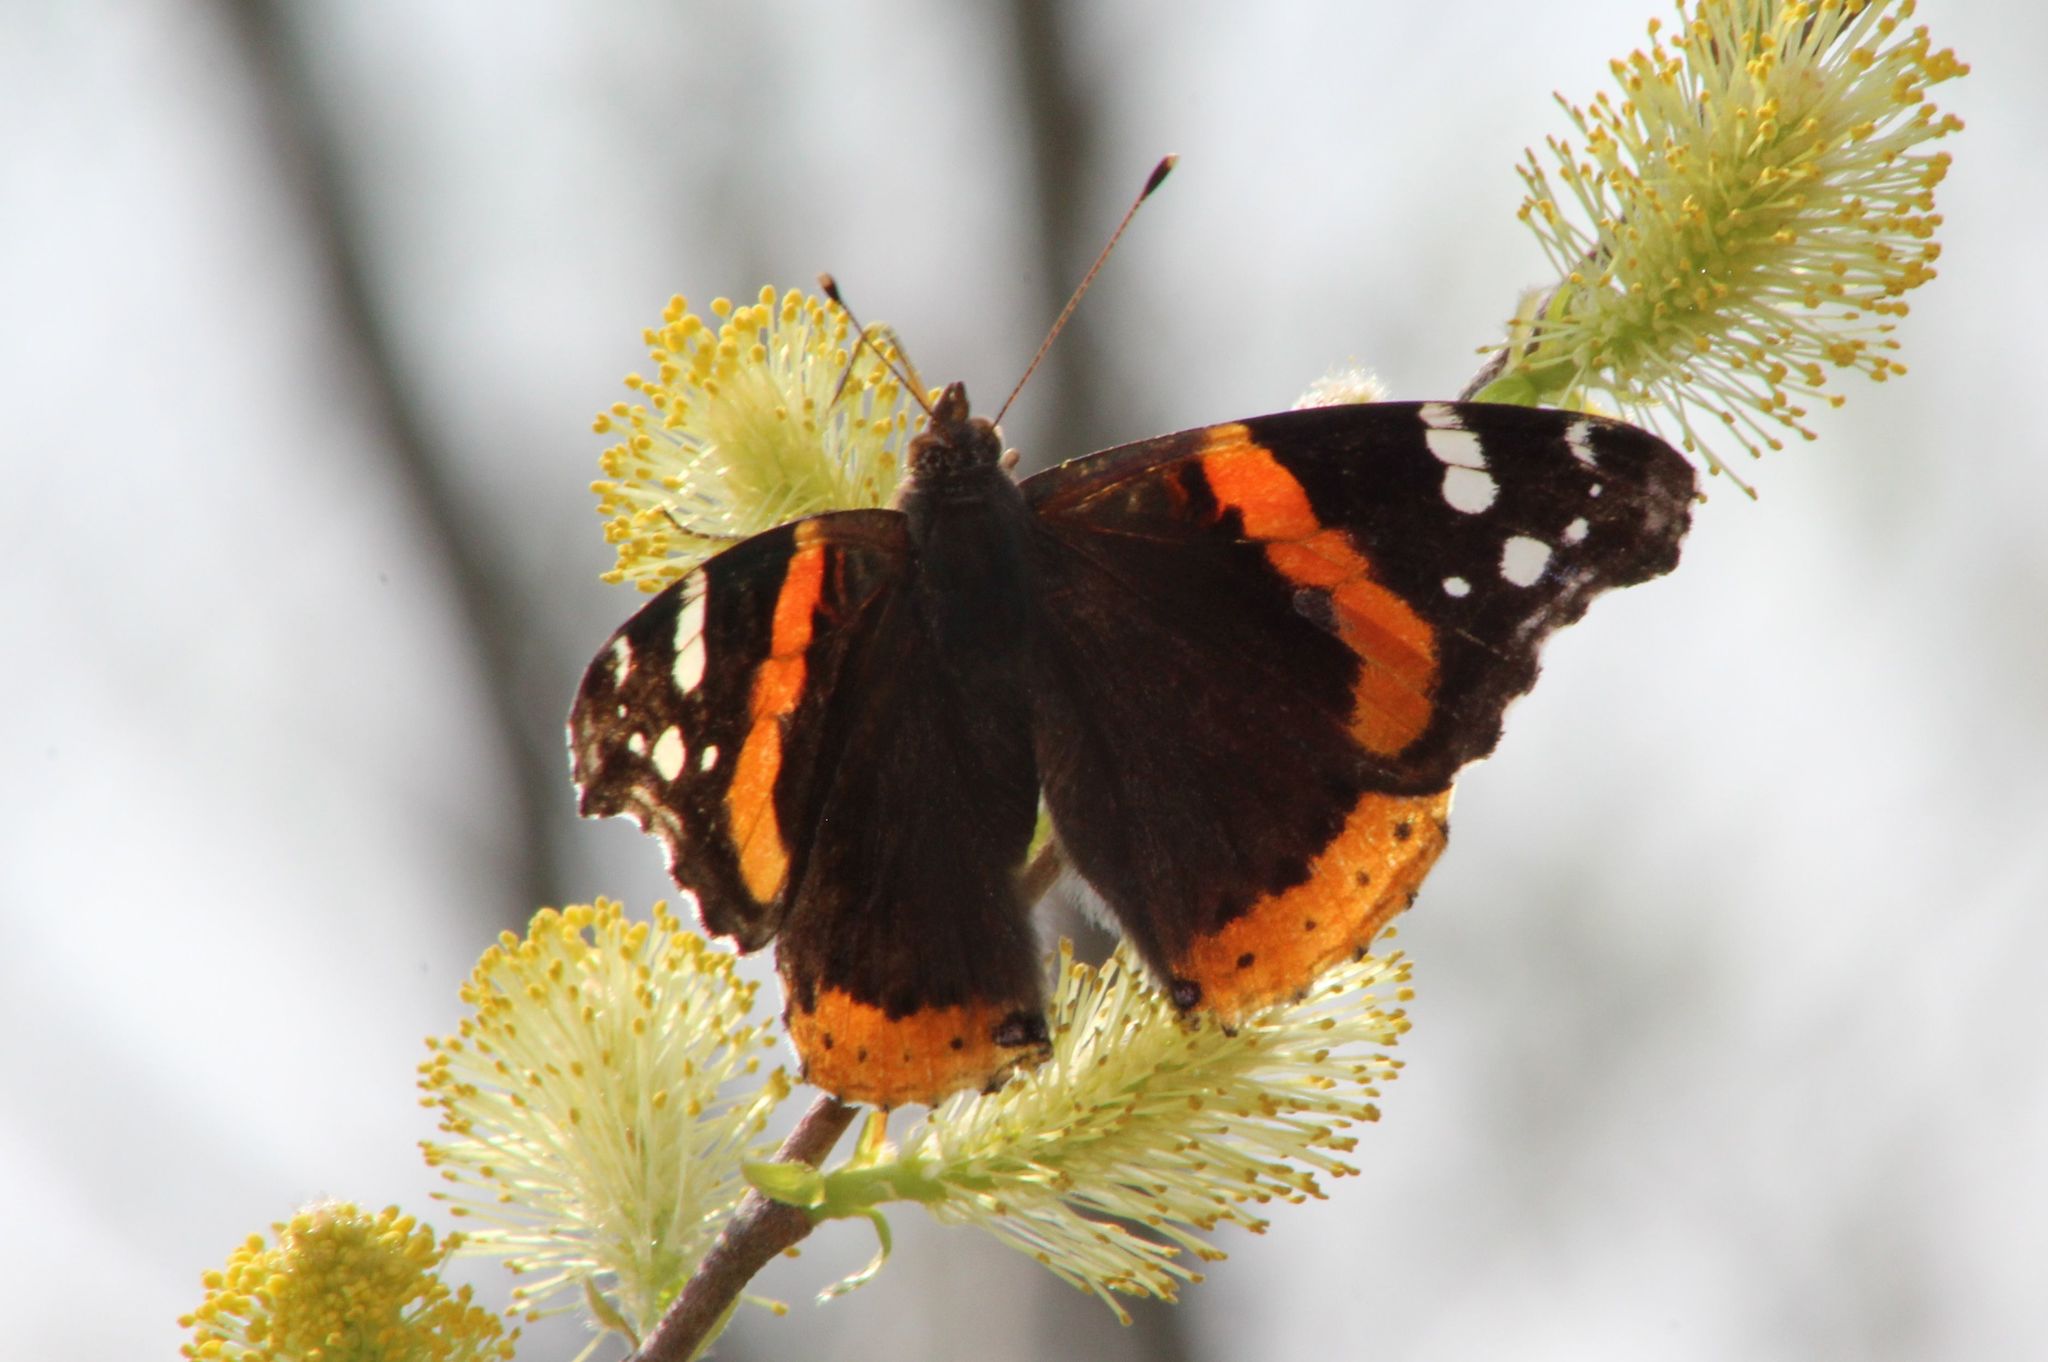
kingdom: Animalia
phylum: Arthropoda
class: Insecta
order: Lepidoptera
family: Nymphalidae
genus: Vanessa
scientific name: Vanessa atalanta
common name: Red admiral
